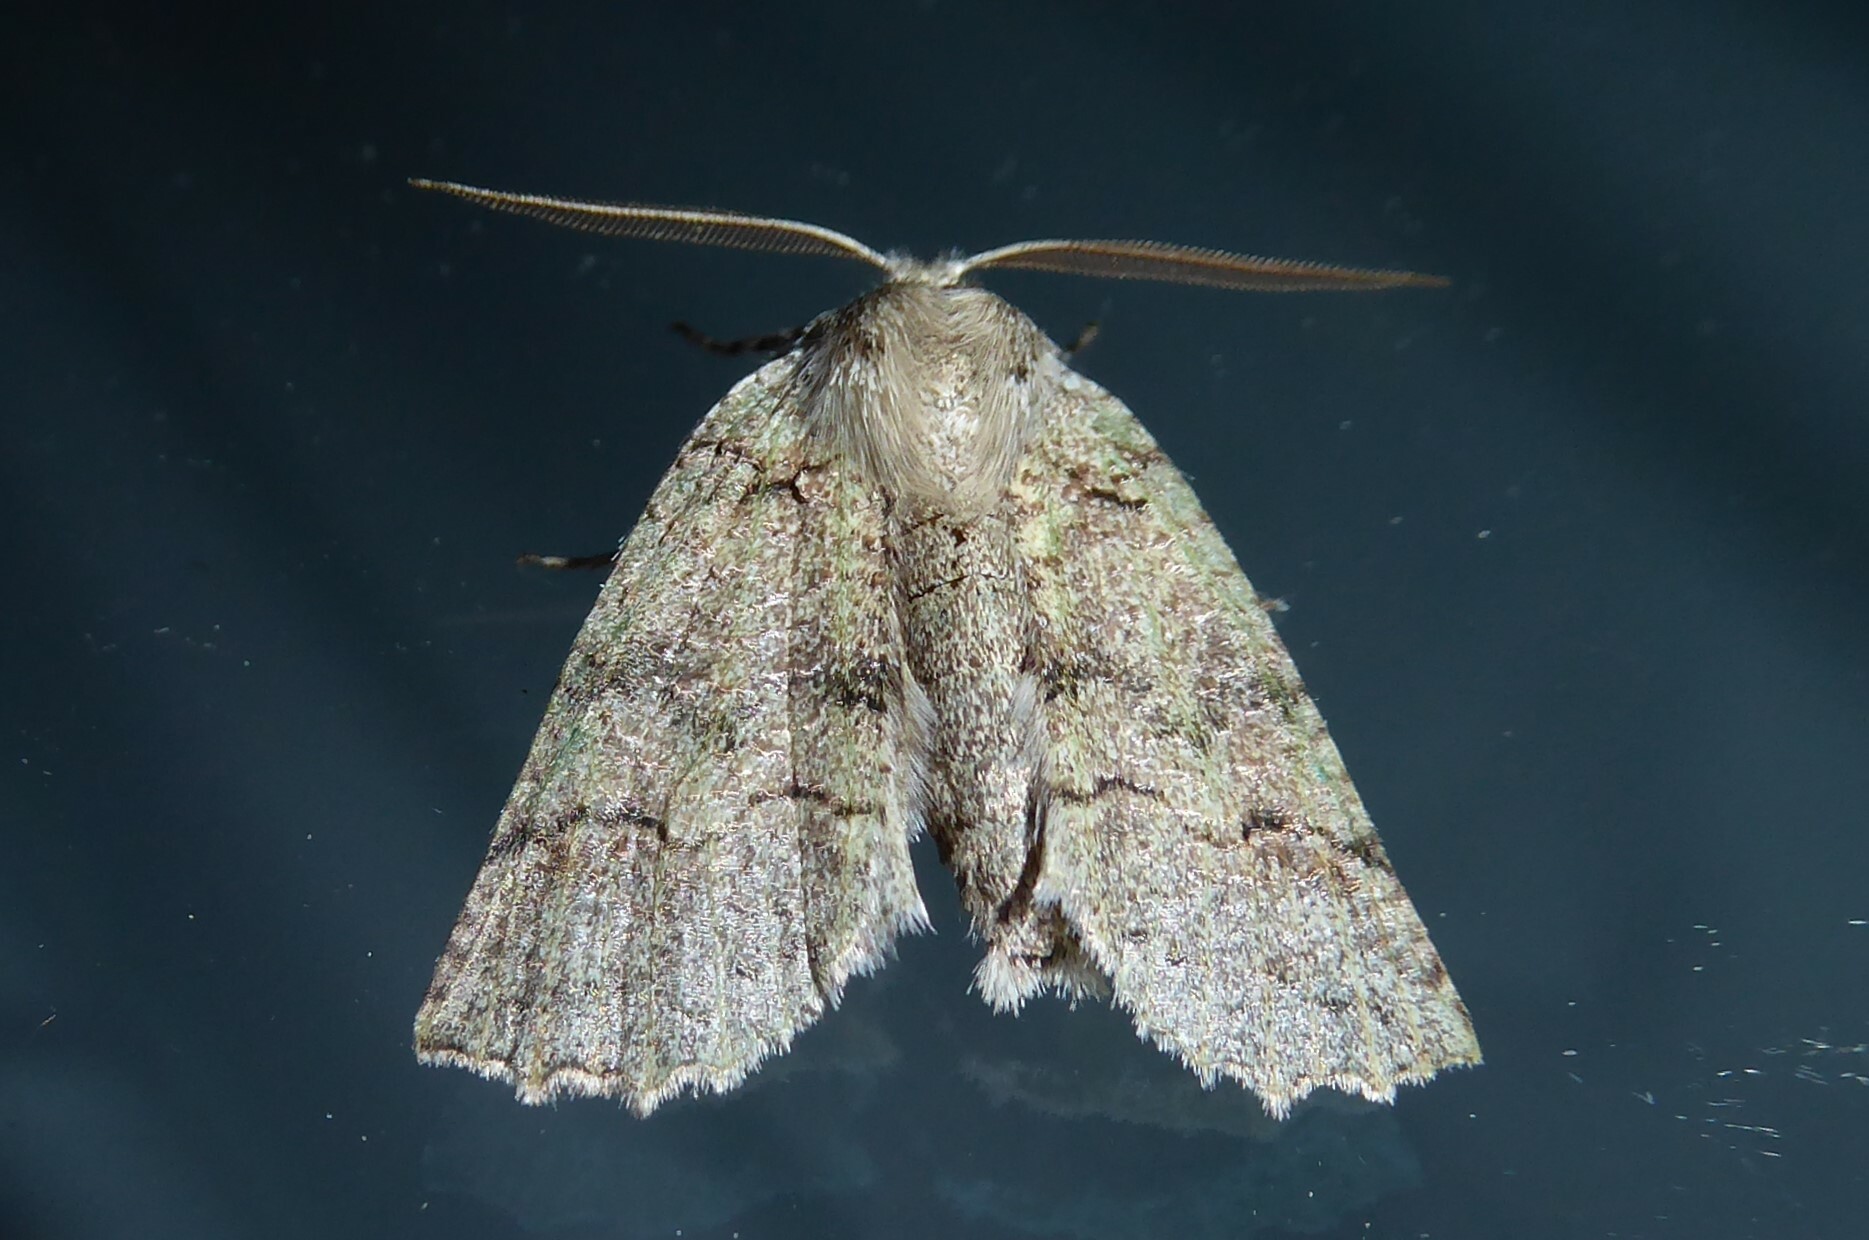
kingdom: Animalia
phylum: Arthropoda
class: Insecta
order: Lepidoptera
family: Geometridae
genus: Declana
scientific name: Declana floccosa
